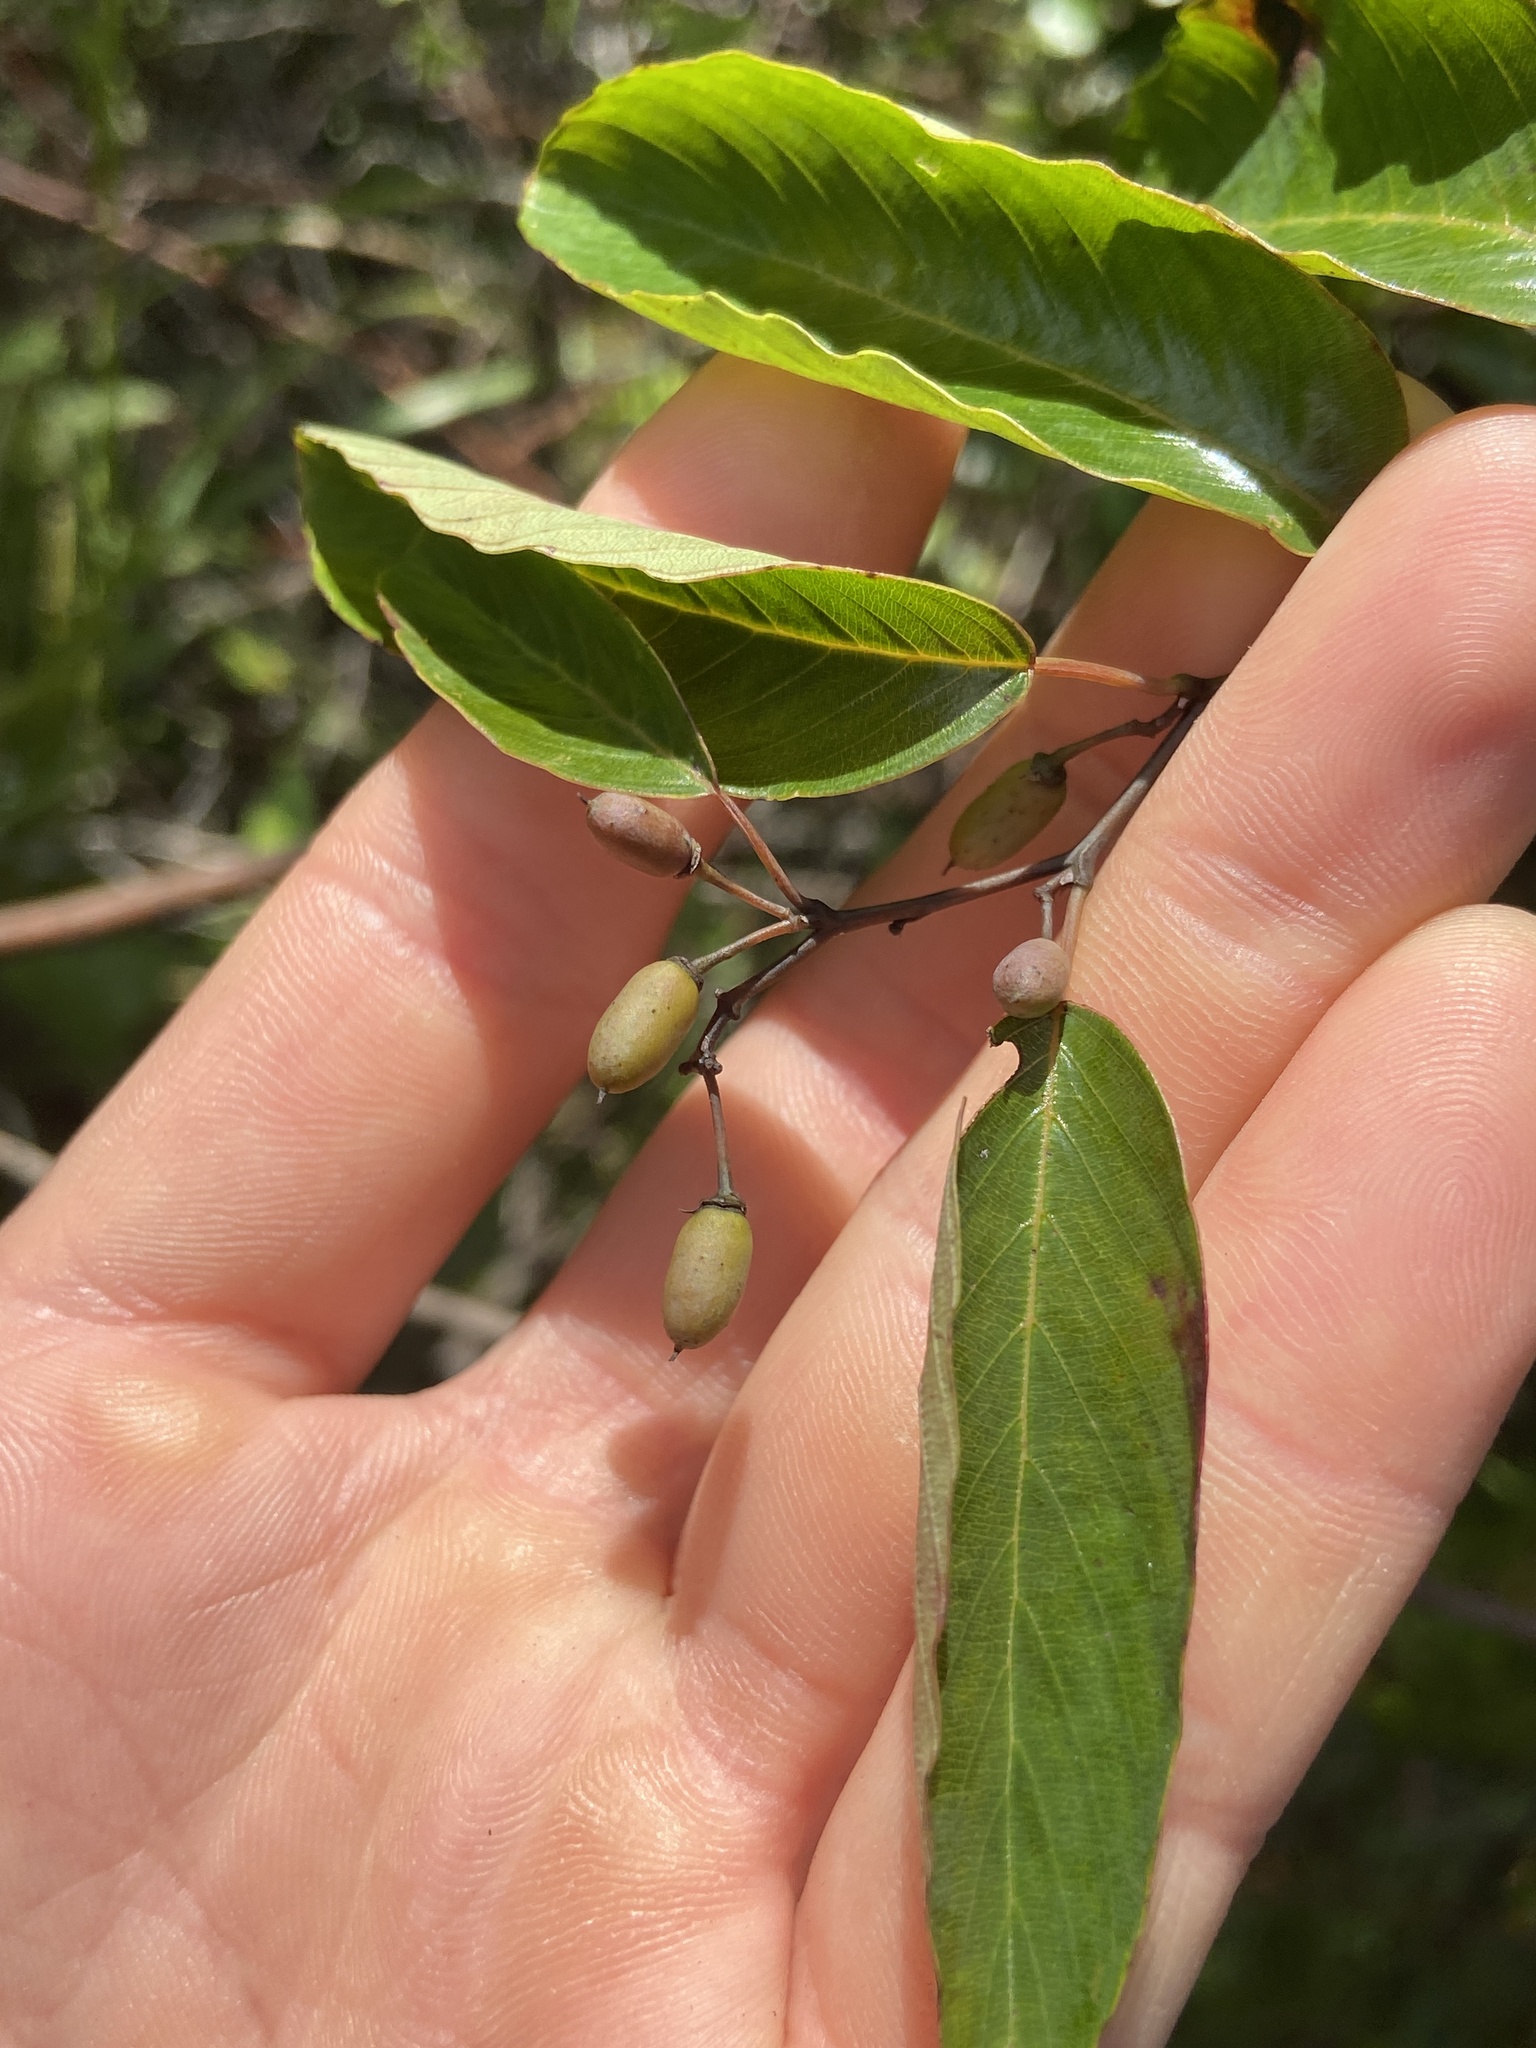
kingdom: Plantae
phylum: Tracheophyta
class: Magnoliopsida
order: Rosales
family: Rhamnaceae
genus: Berchemia
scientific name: Berchemia scandens
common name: Supplejack
